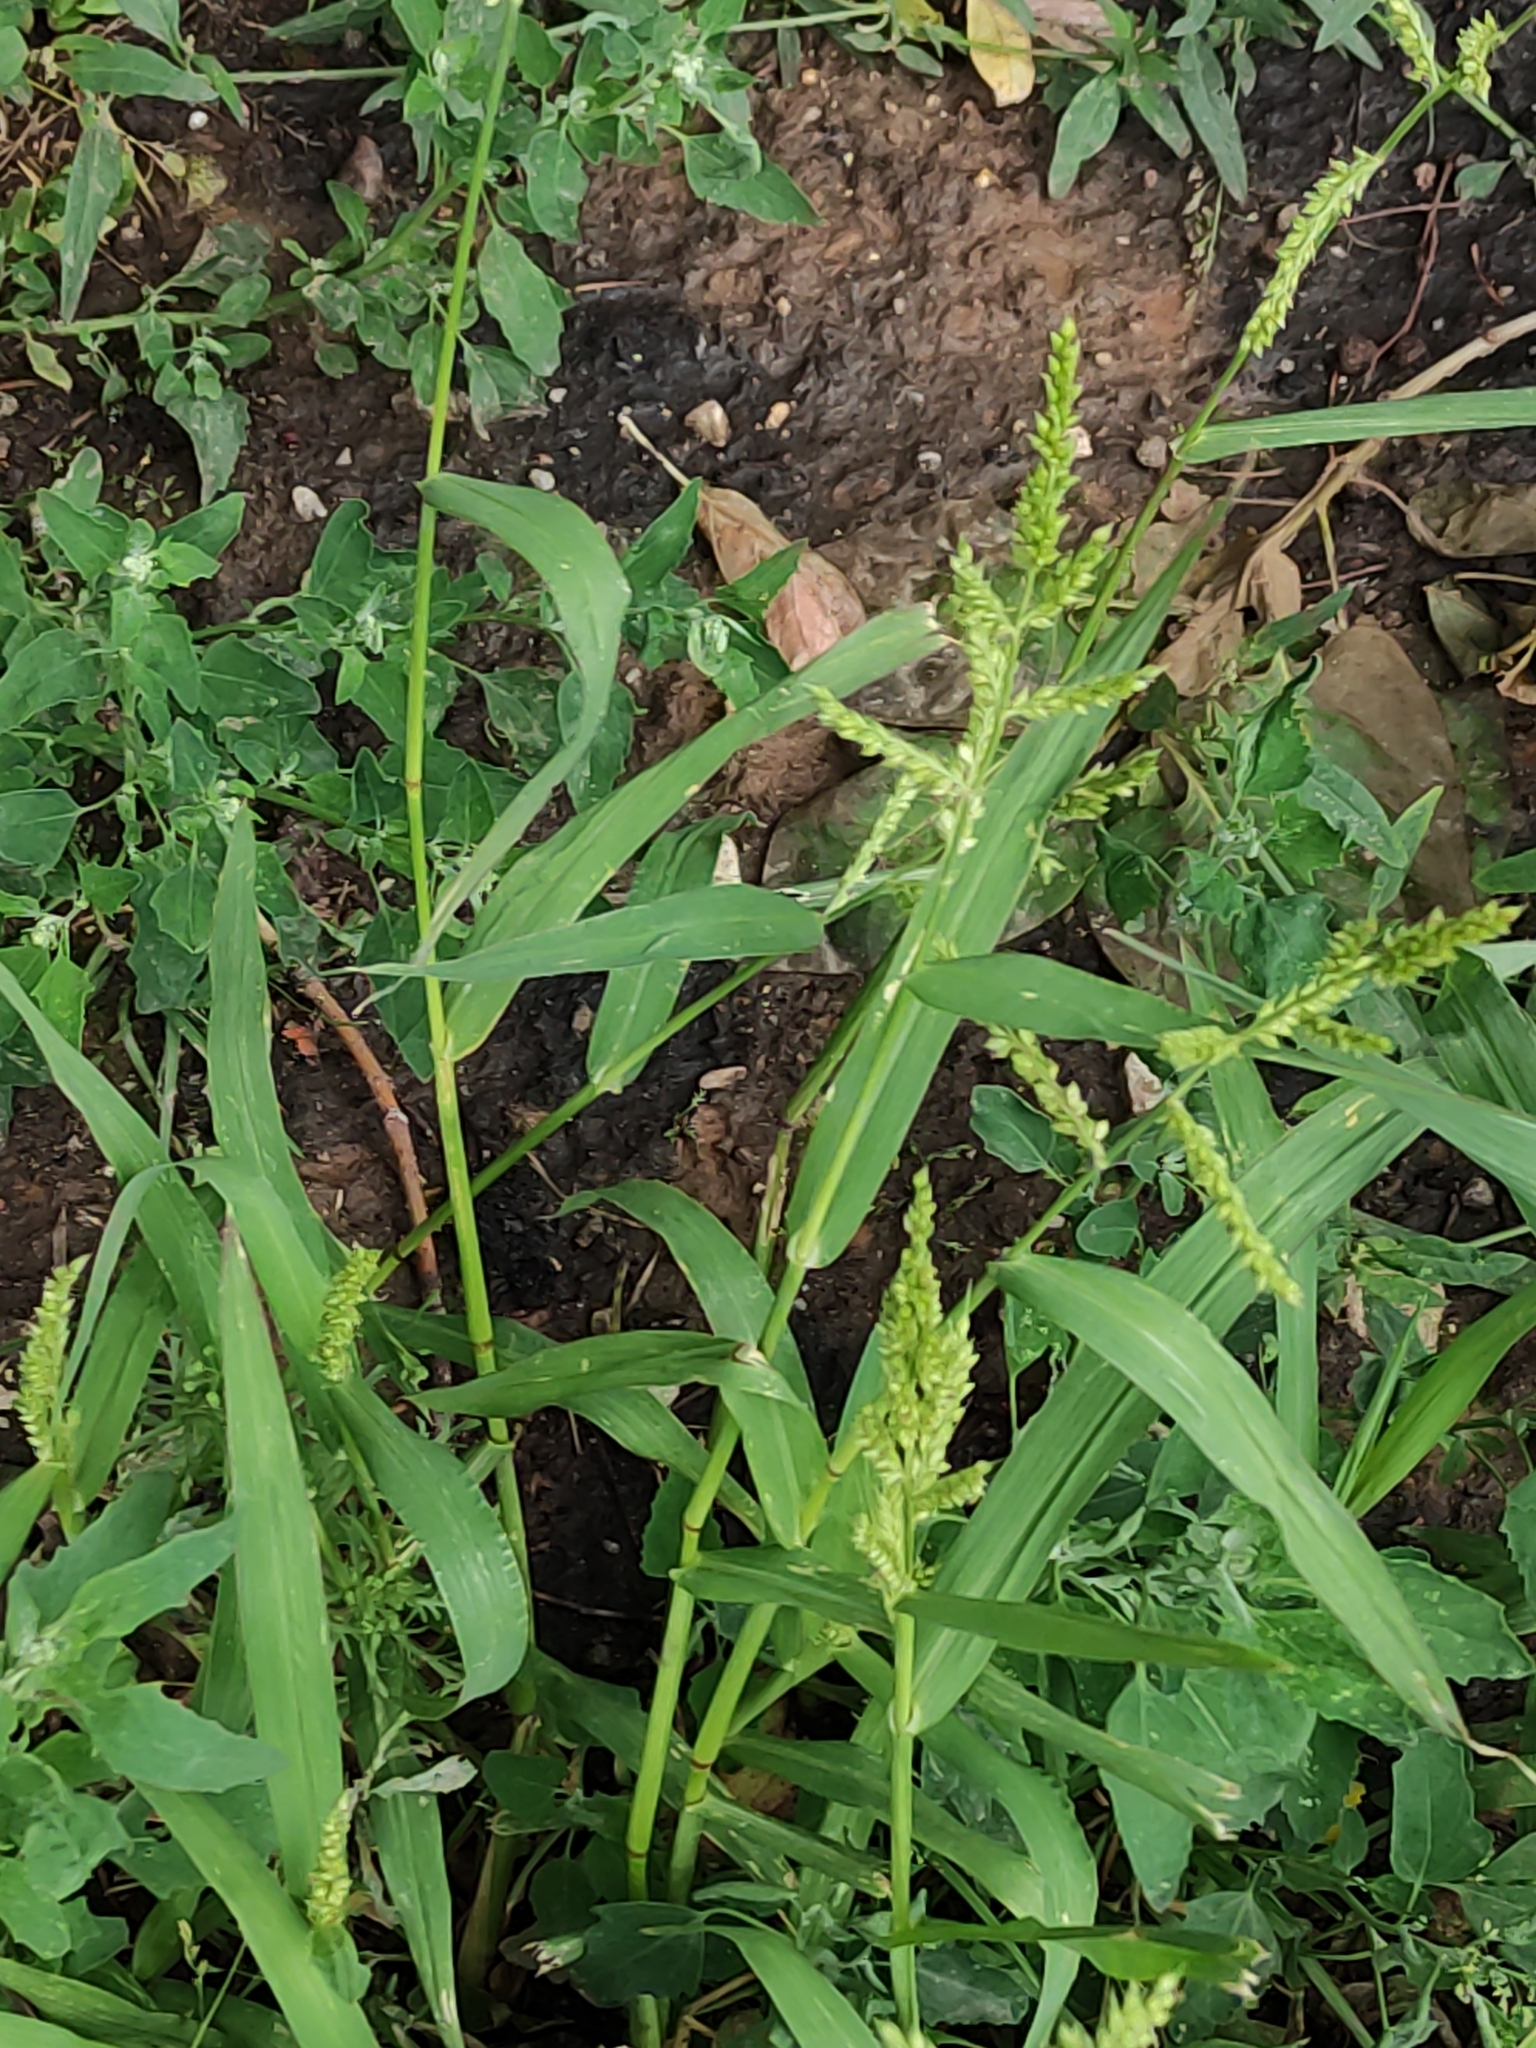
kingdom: Plantae
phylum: Tracheophyta
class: Liliopsida
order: Poales
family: Poaceae
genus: Echinochloa
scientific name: Echinochloa crus-galli
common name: Cockspur
